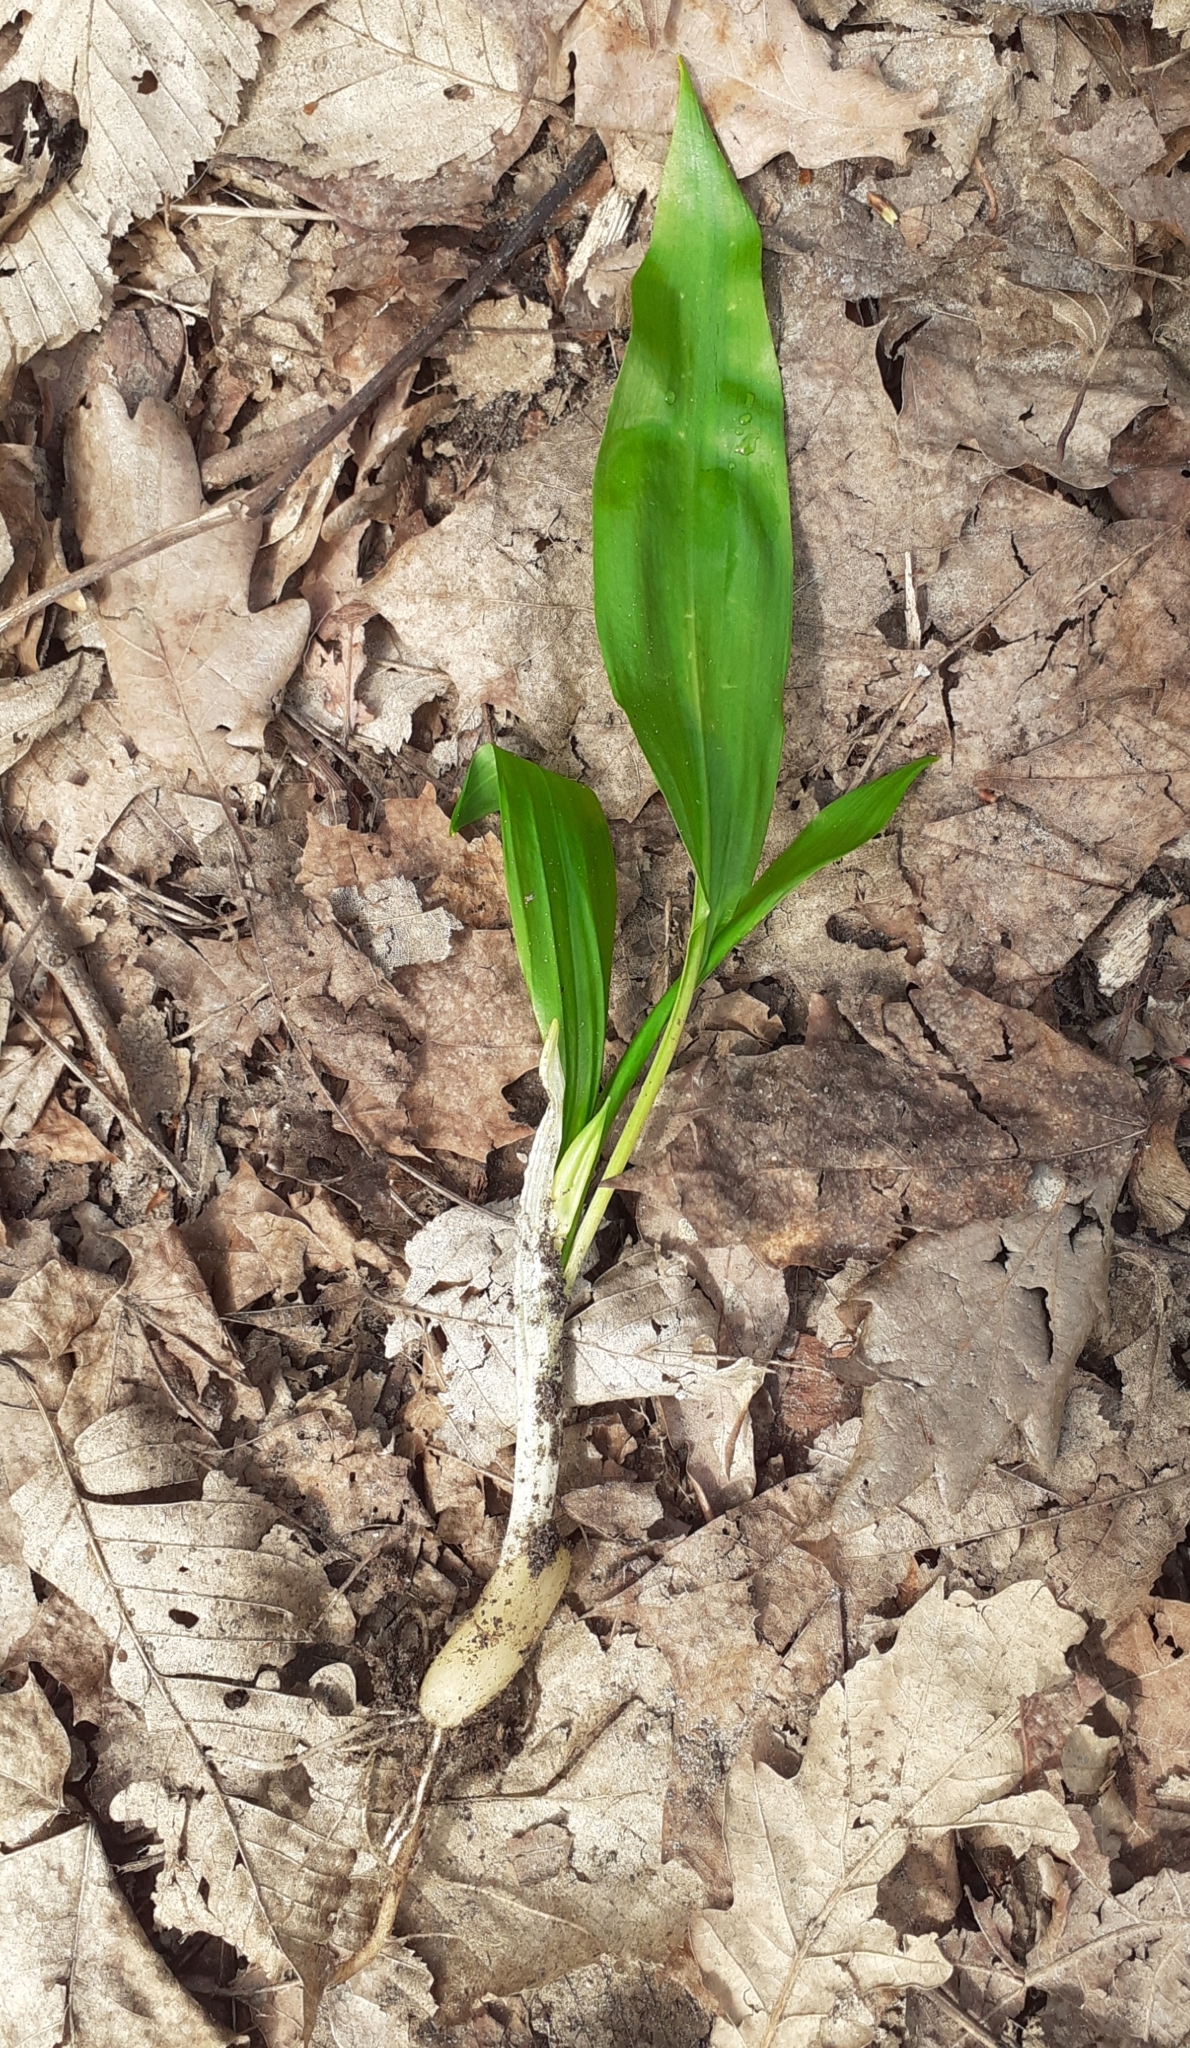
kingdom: Plantae
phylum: Tracheophyta
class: Liliopsida
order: Asparagales
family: Amaryllidaceae
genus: Allium
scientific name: Allium ursinum
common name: Ramsons
